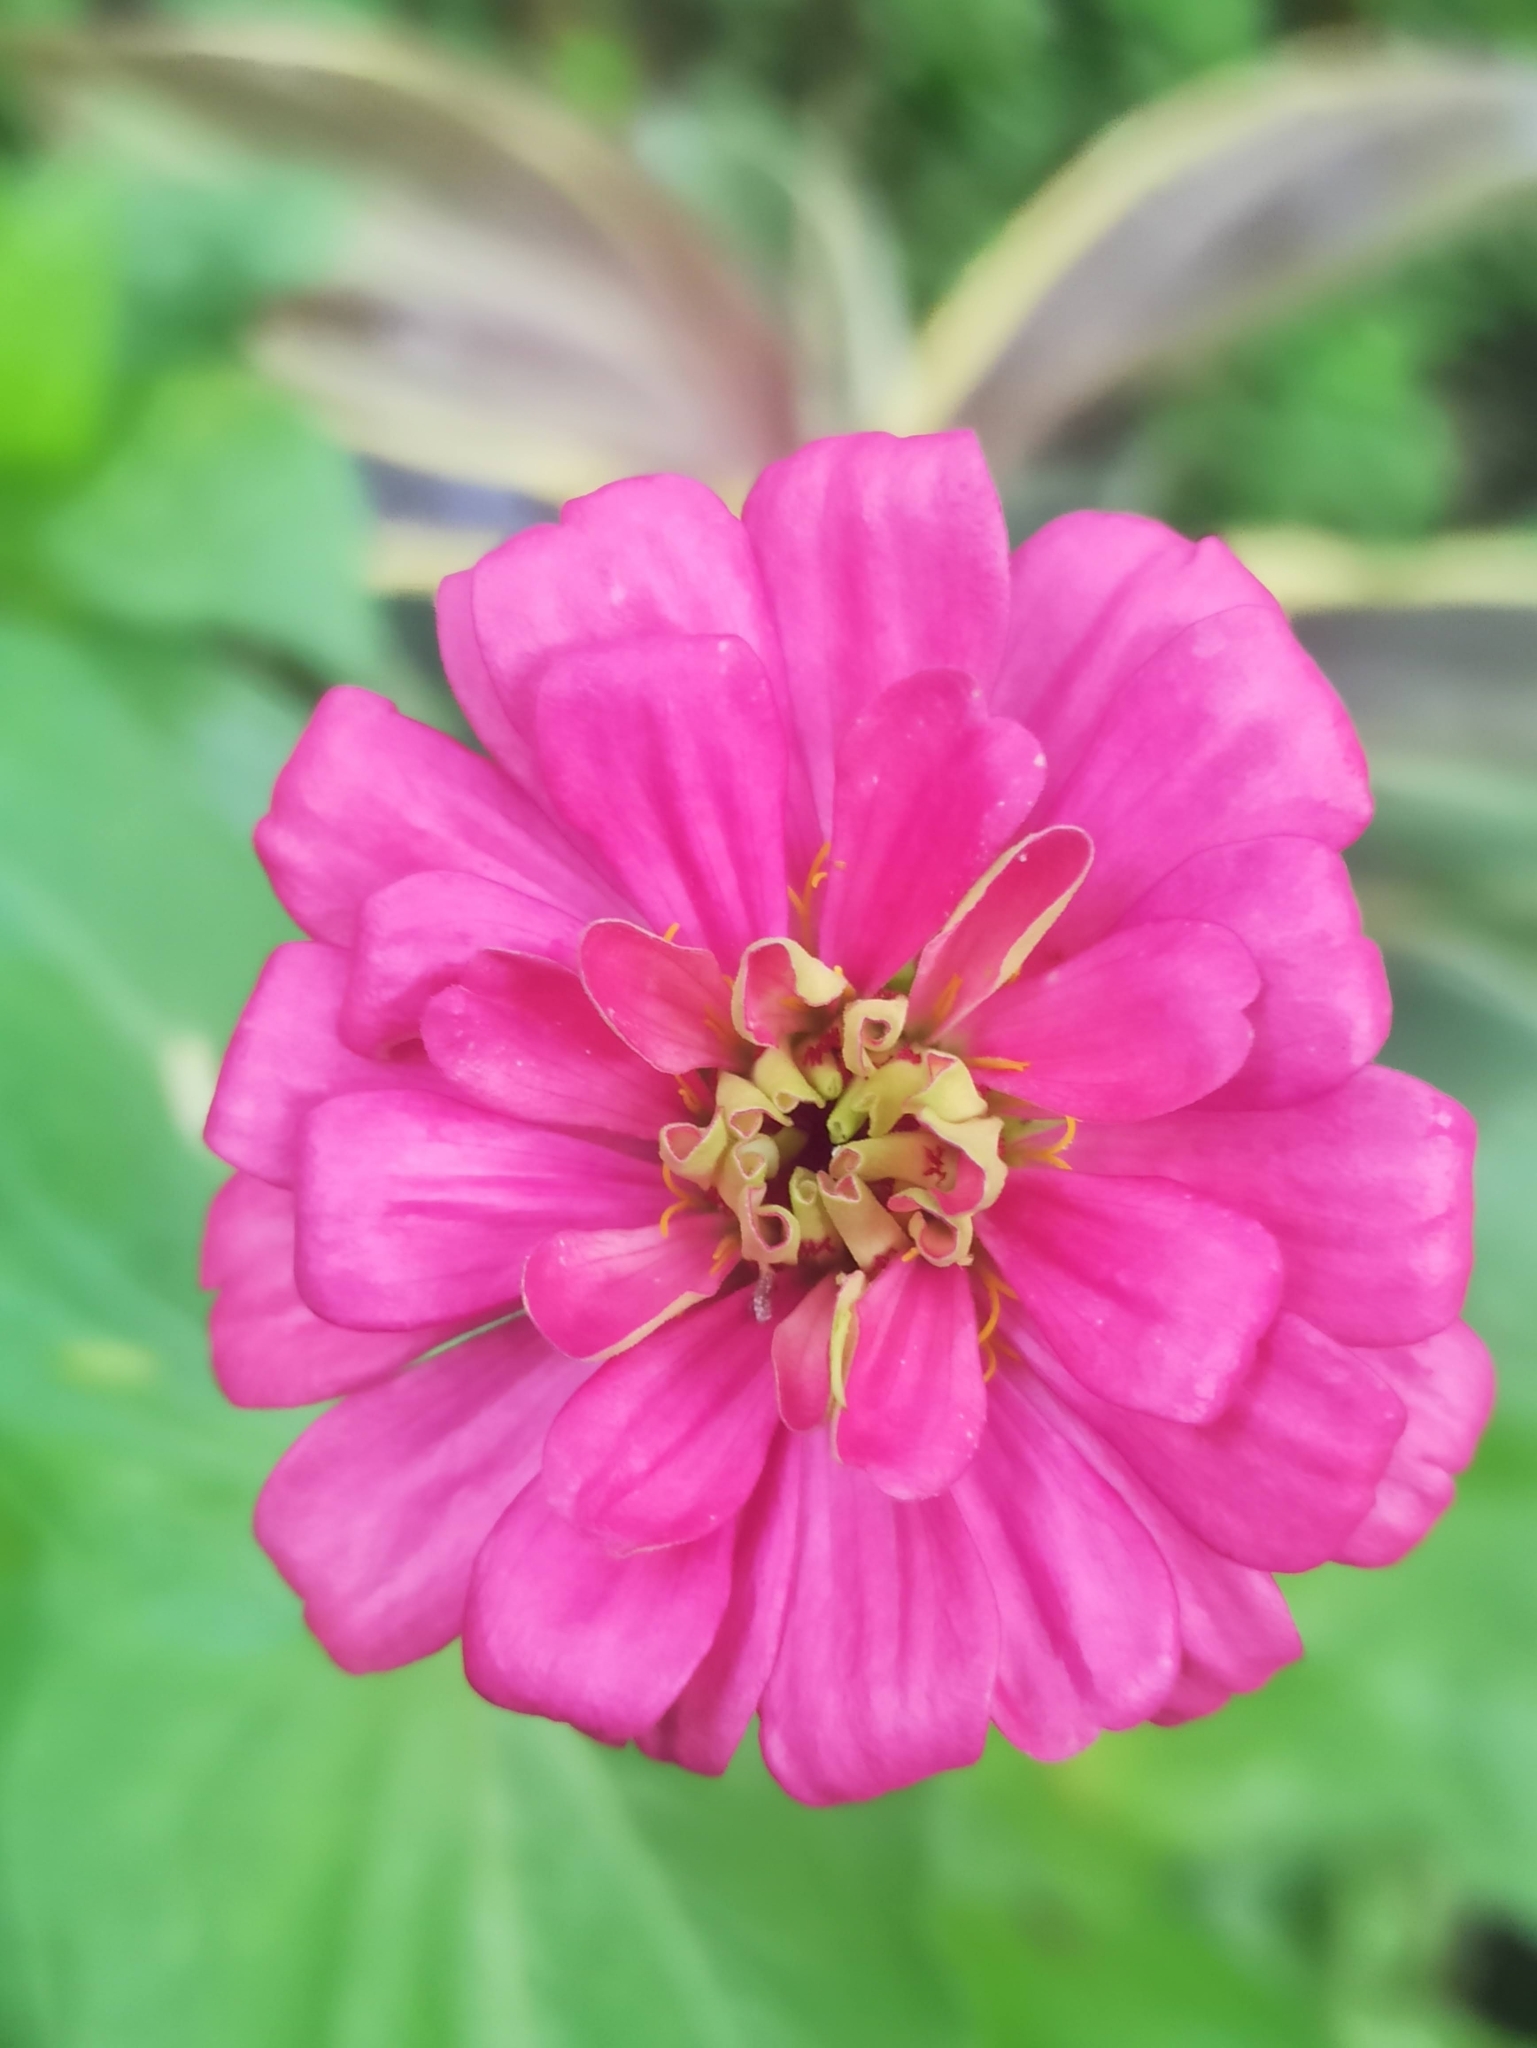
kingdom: Plantae
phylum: Tracheophyta
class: Magnoliopsida
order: Asterales
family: Asteraceae
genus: Zinnia
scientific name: Zinnia elegans
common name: Youth-and-age
